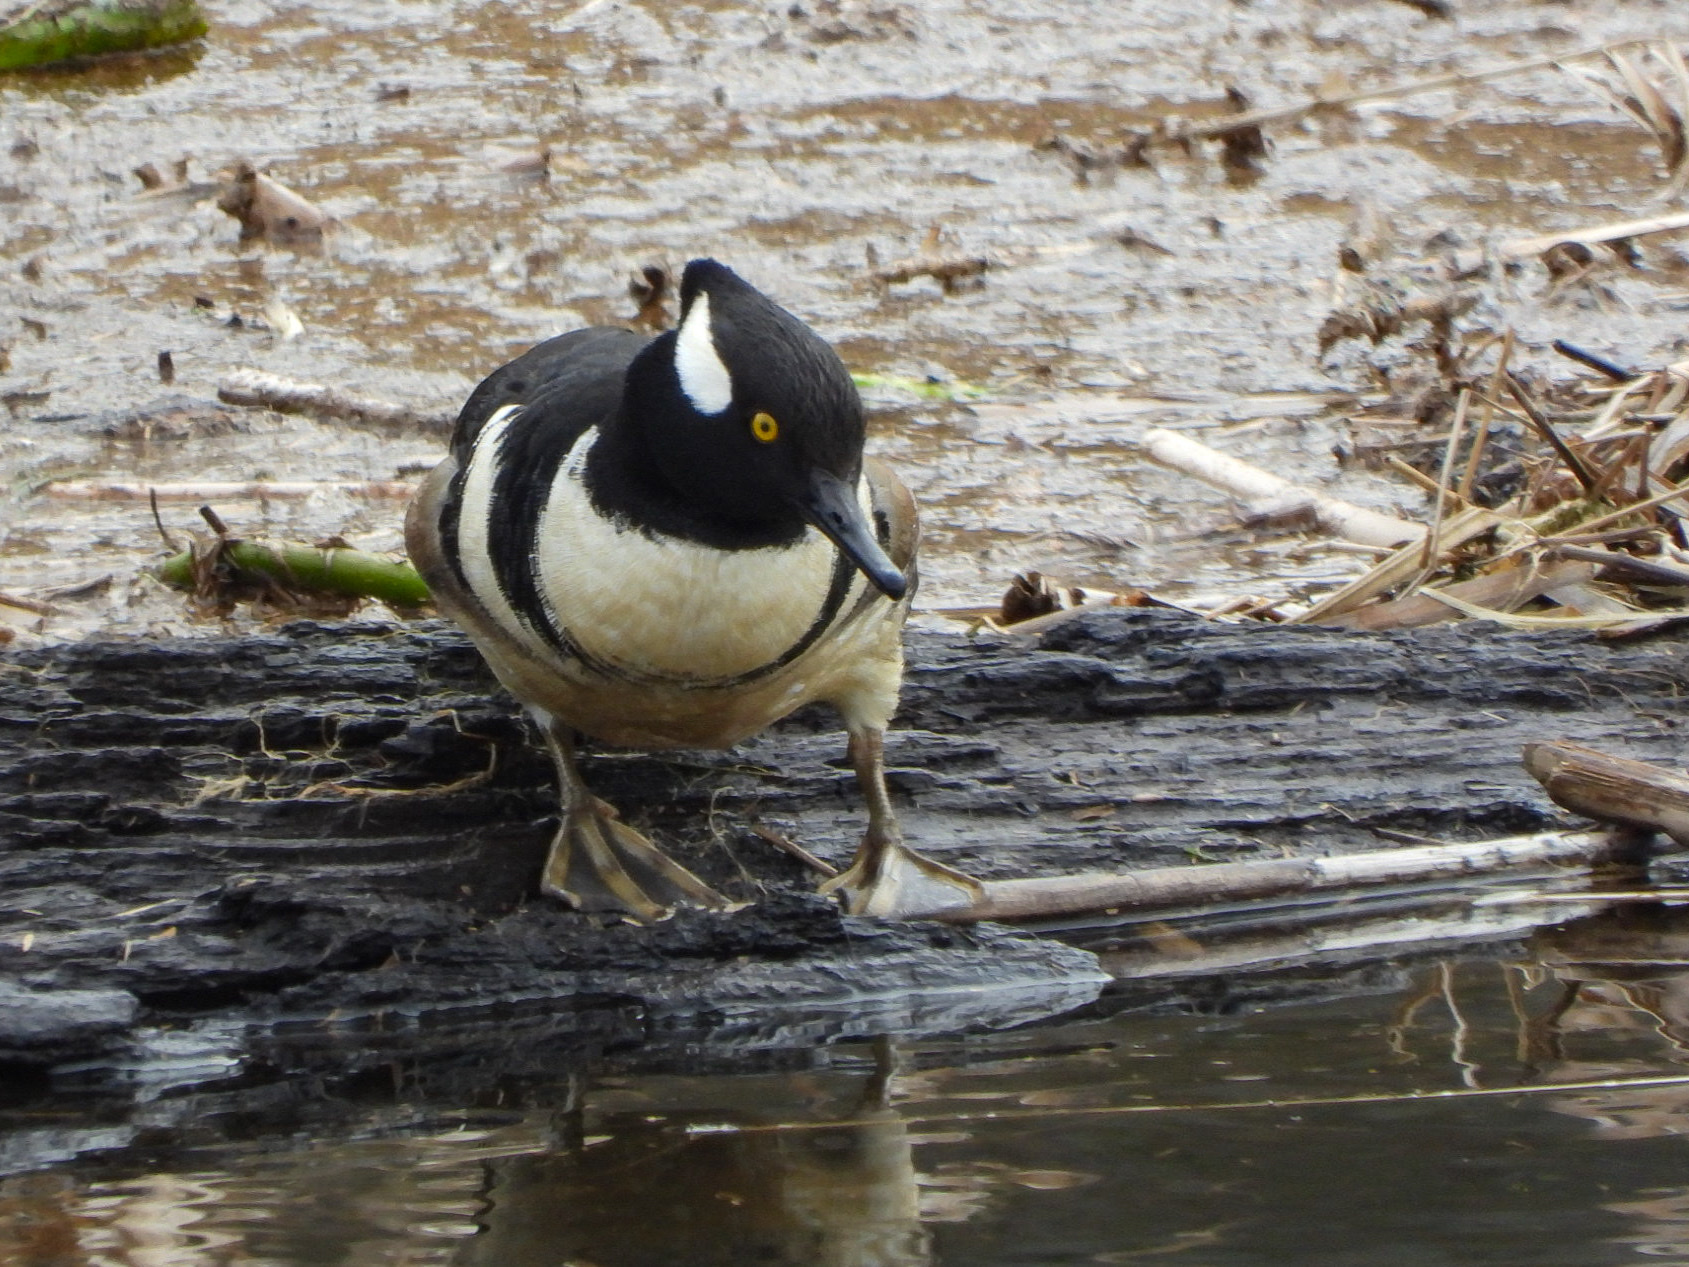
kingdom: Animalia
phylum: Chordata
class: Aves
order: Anseriformes
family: Anatidae
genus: Lophodytes
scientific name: Lophodytes cucullatus
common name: Hooded merganser
